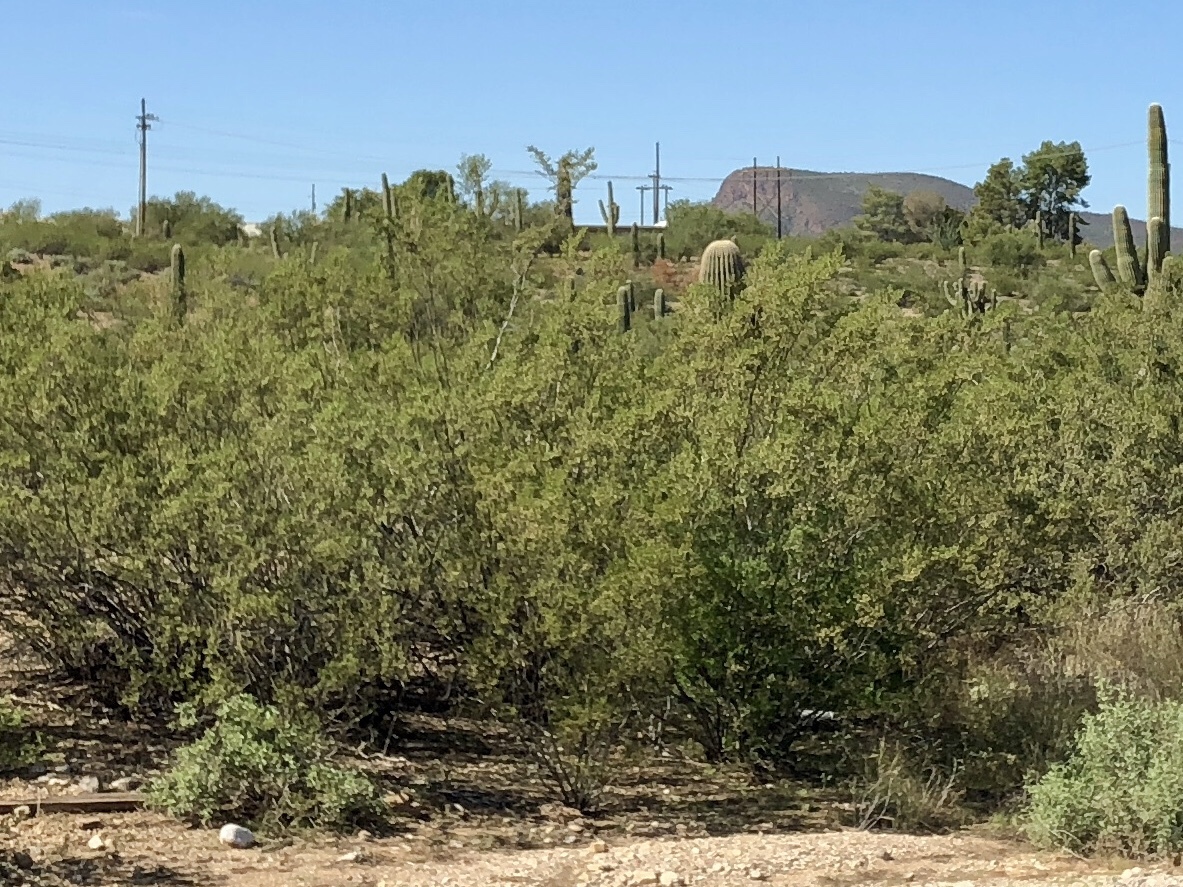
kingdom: Plantae
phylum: Tracheophyta
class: Magnoliopsida
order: Zygophyllales
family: Zygophyllaceae
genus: Larrea
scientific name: Larrea tridentata
